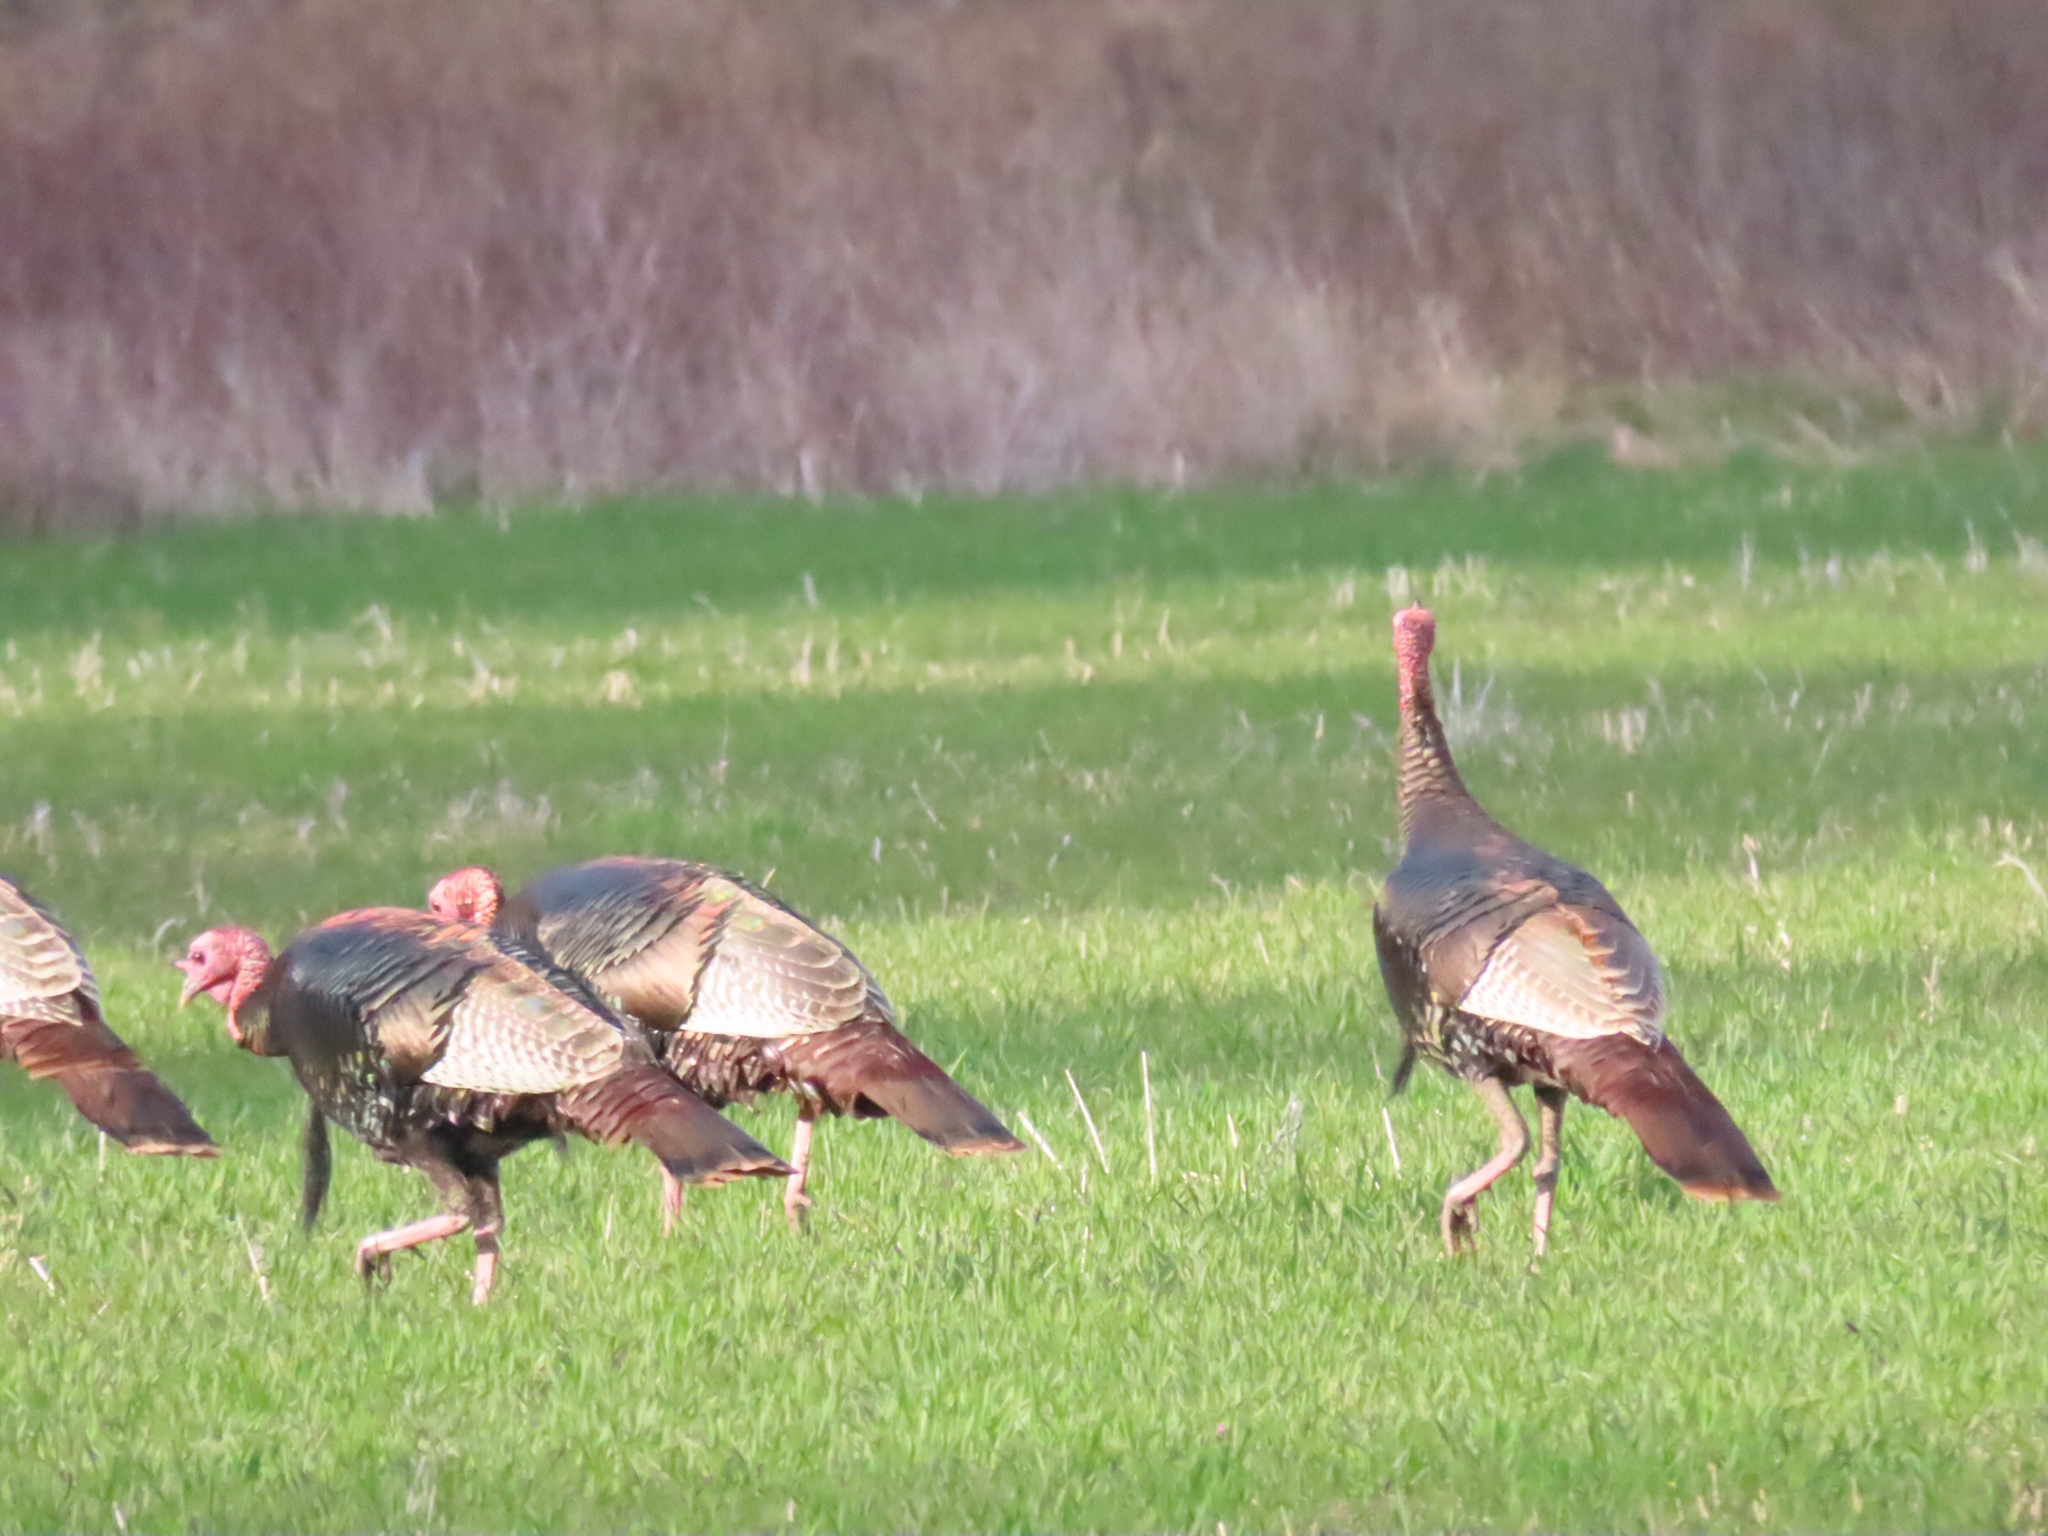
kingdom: Animalia
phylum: Chordata
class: Aves
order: Galliformes
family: Phasianidae
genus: Meleagris
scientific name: Meleagris gallopavo
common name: Wild turkey
